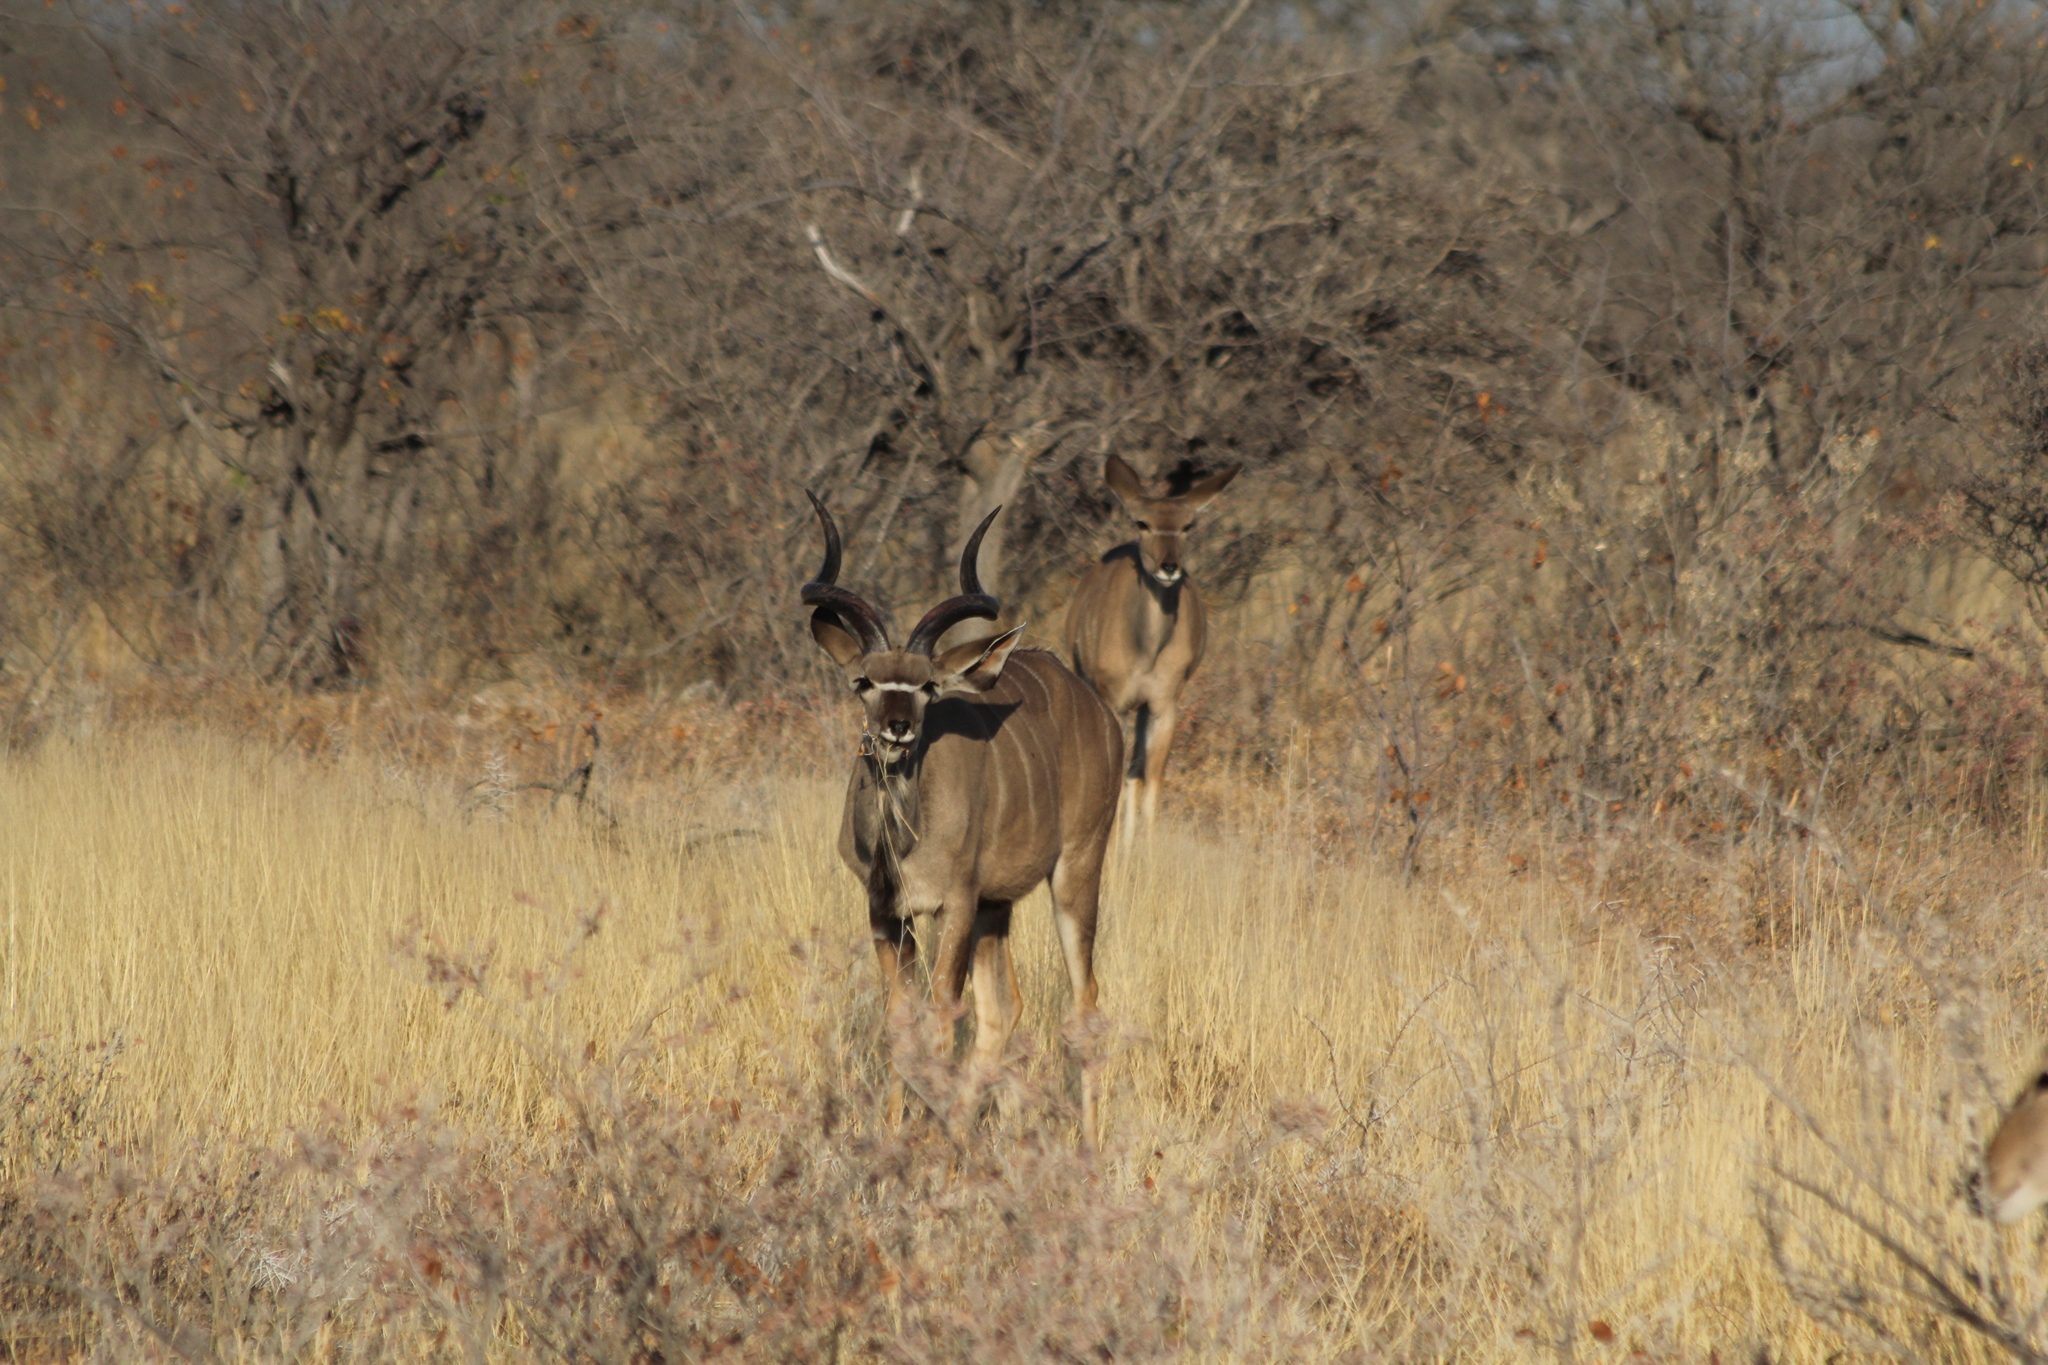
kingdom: Animalia
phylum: Chordata
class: Mammalia
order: Artiodactyla
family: Bovidae
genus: Tragelaphus
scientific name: Tragelaphus strepsiceros
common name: Greater kudu
